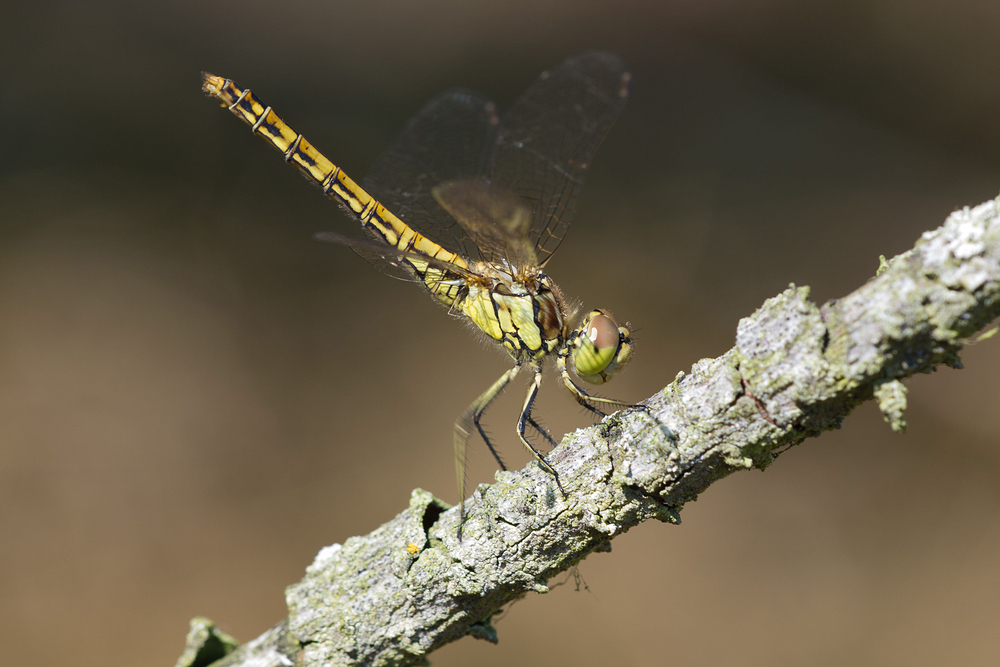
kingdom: Animalia
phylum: Arthropoda
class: Insecta
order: Odonata
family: Libellulidae
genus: Sympetrum
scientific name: Sympetrum vulgatum
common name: Vagrant darter
